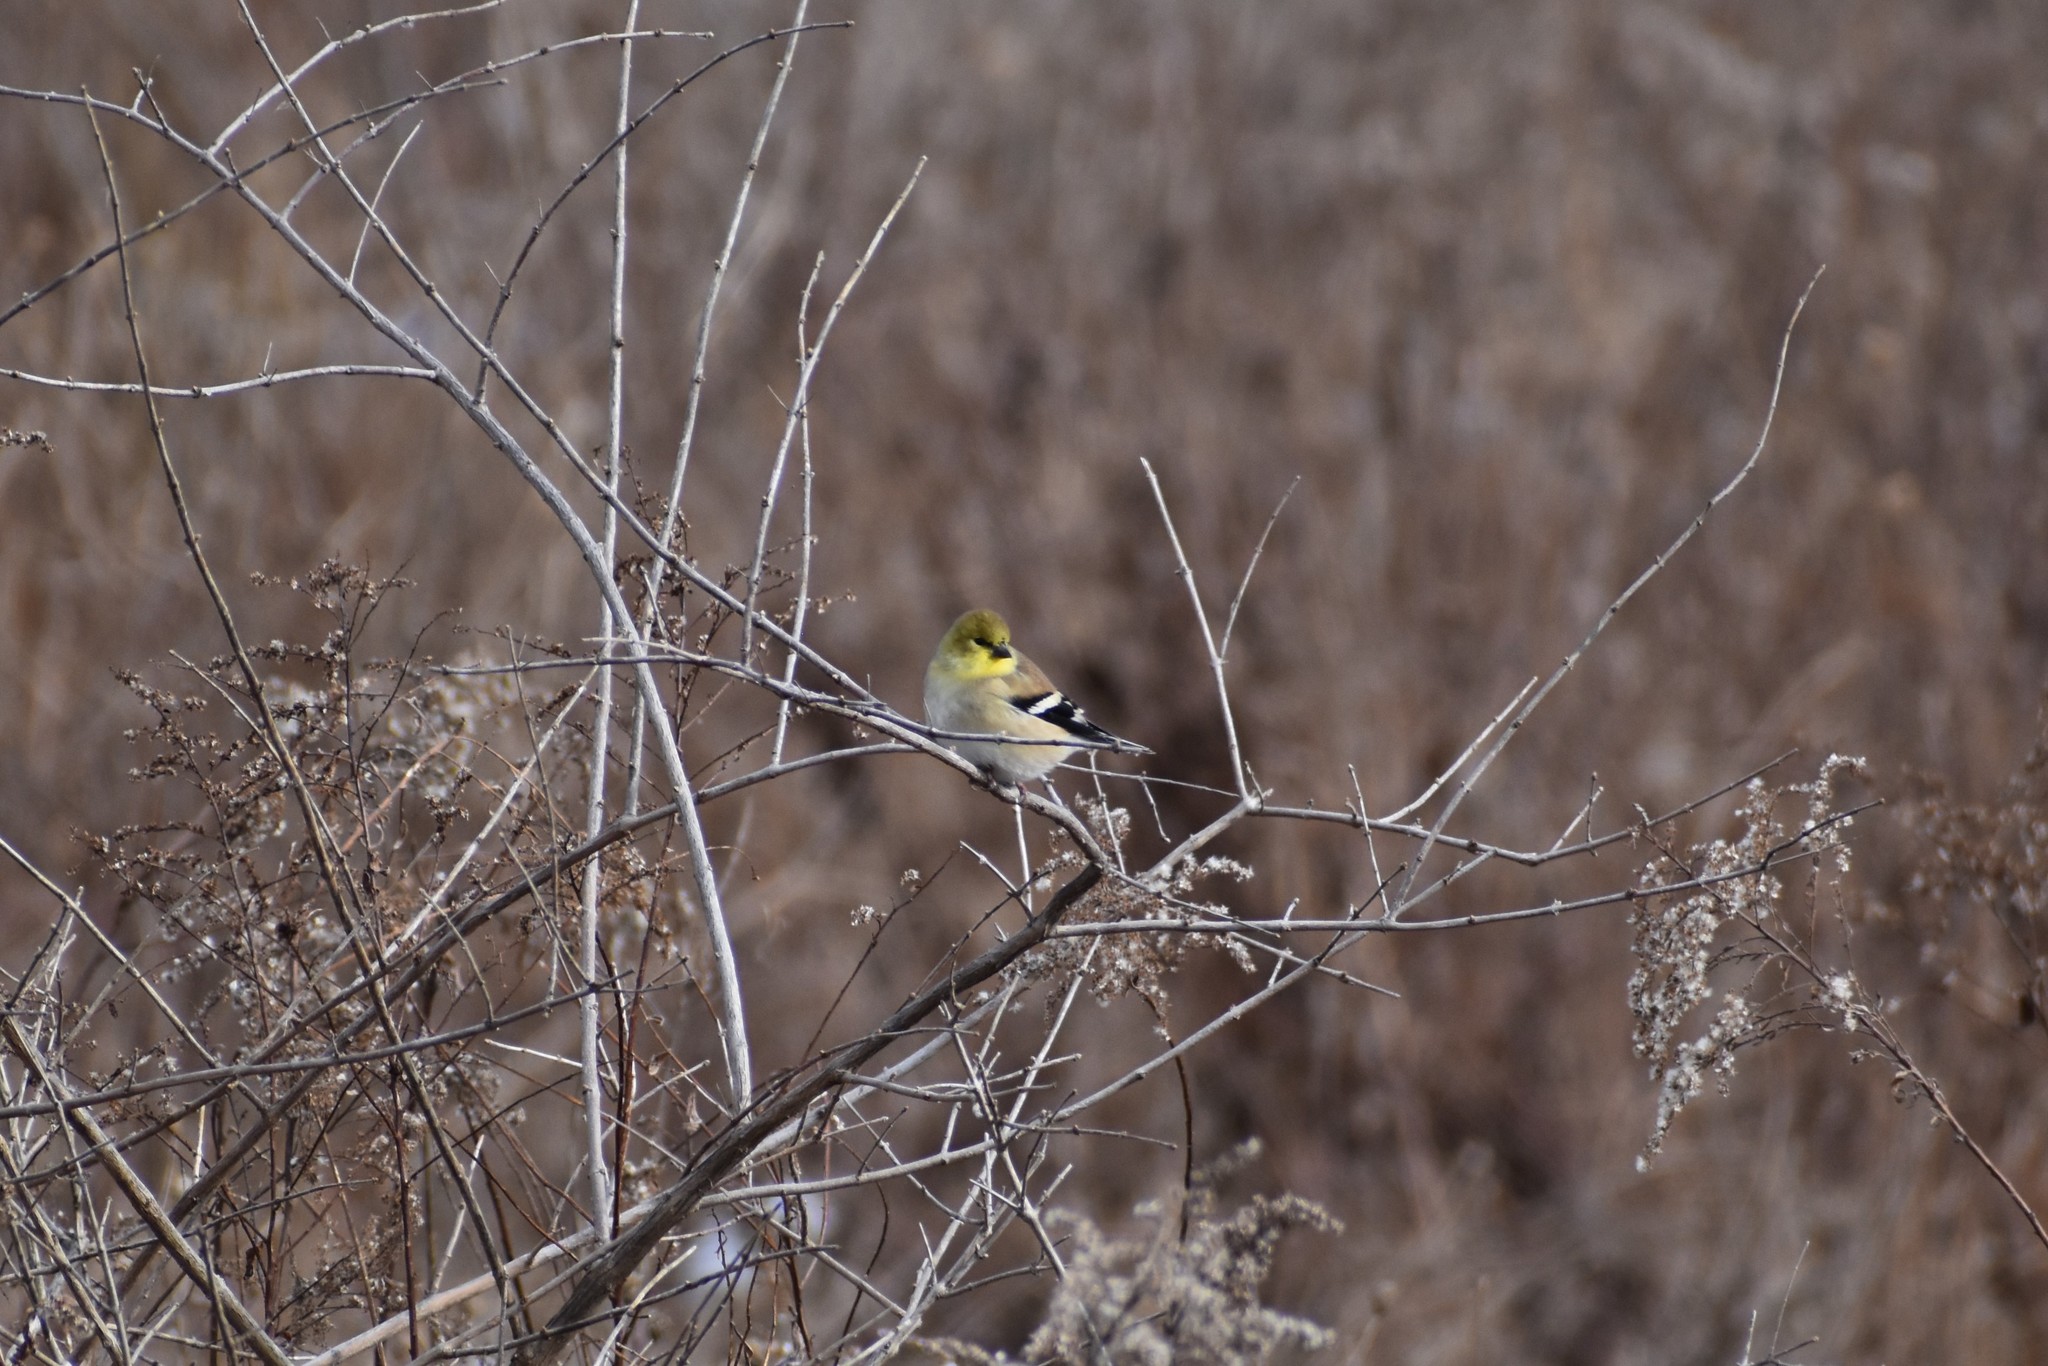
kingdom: Animalia
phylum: Chordata
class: Aves
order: Passeriformes
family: Fringillidae
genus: Spinus
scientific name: Spinus tristis
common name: American goldfinch
